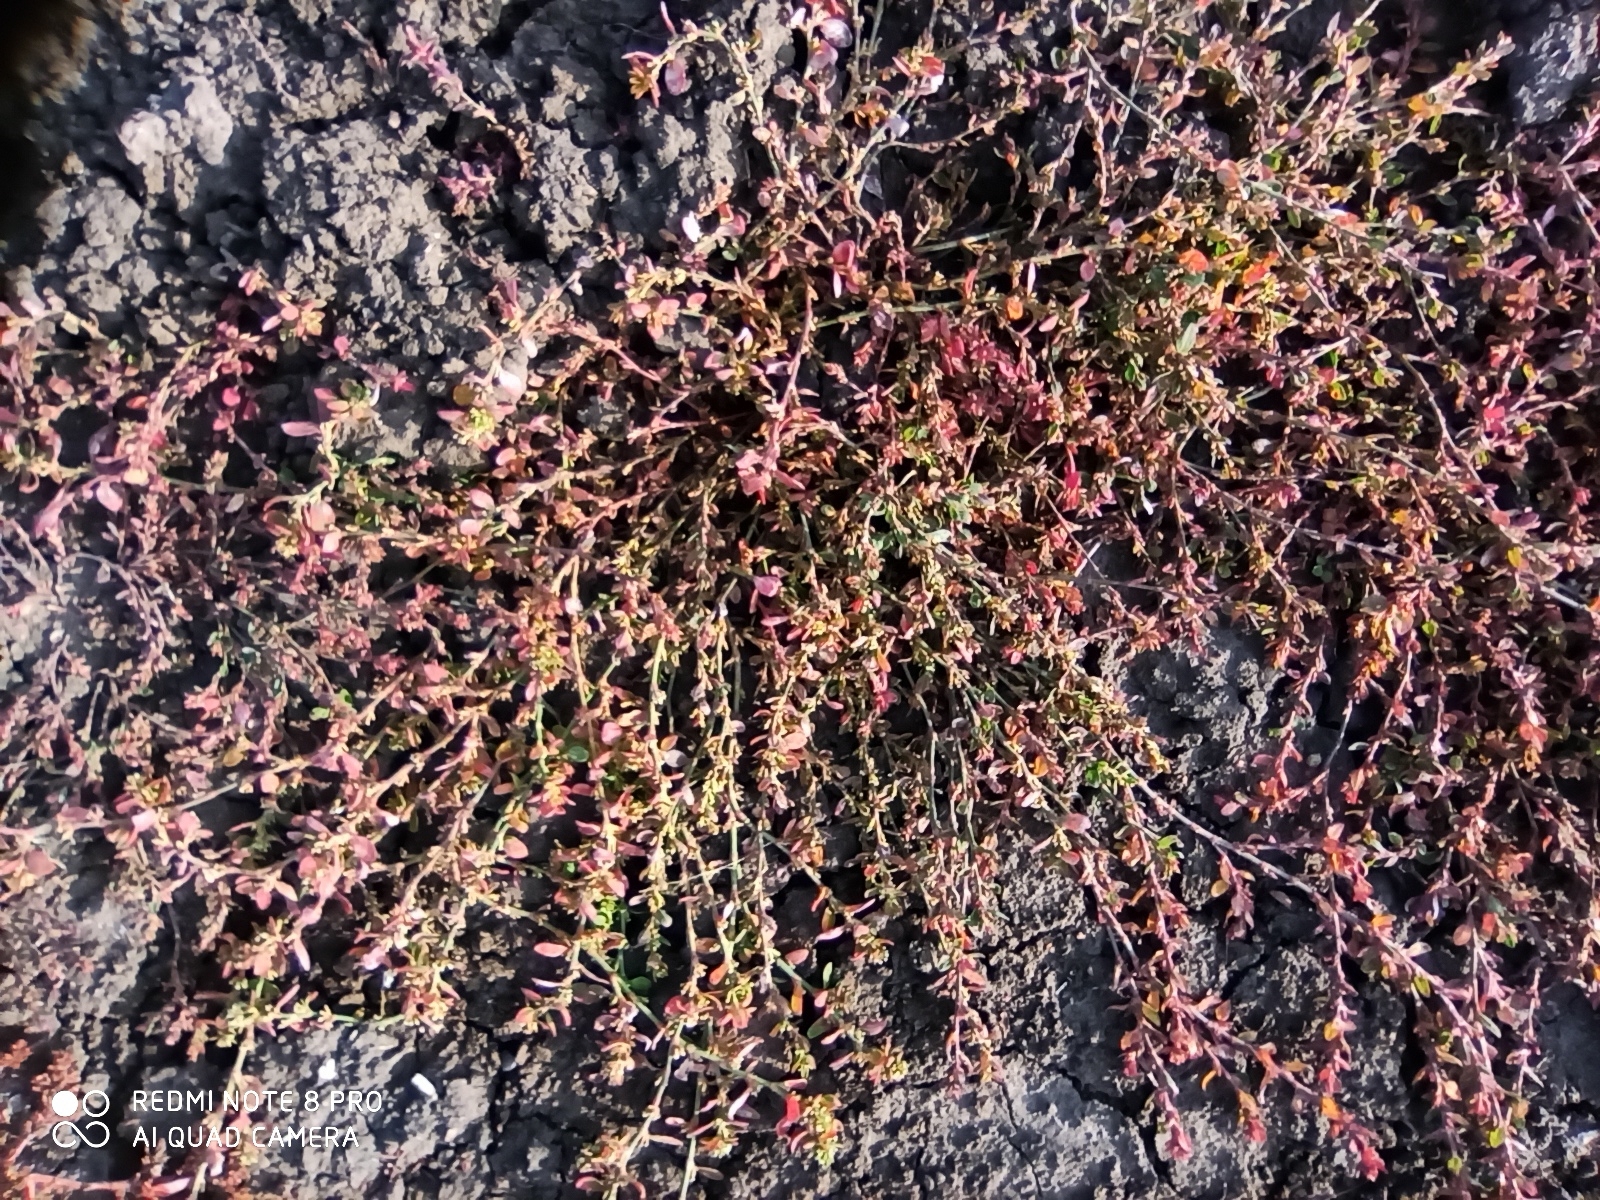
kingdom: Plantae
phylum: Tracheophyta
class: Magnoliopsida
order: Caryophyllales
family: Polygonaceae
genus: Polygonum
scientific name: Polygonum aviculare
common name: Prostrate knotweed
